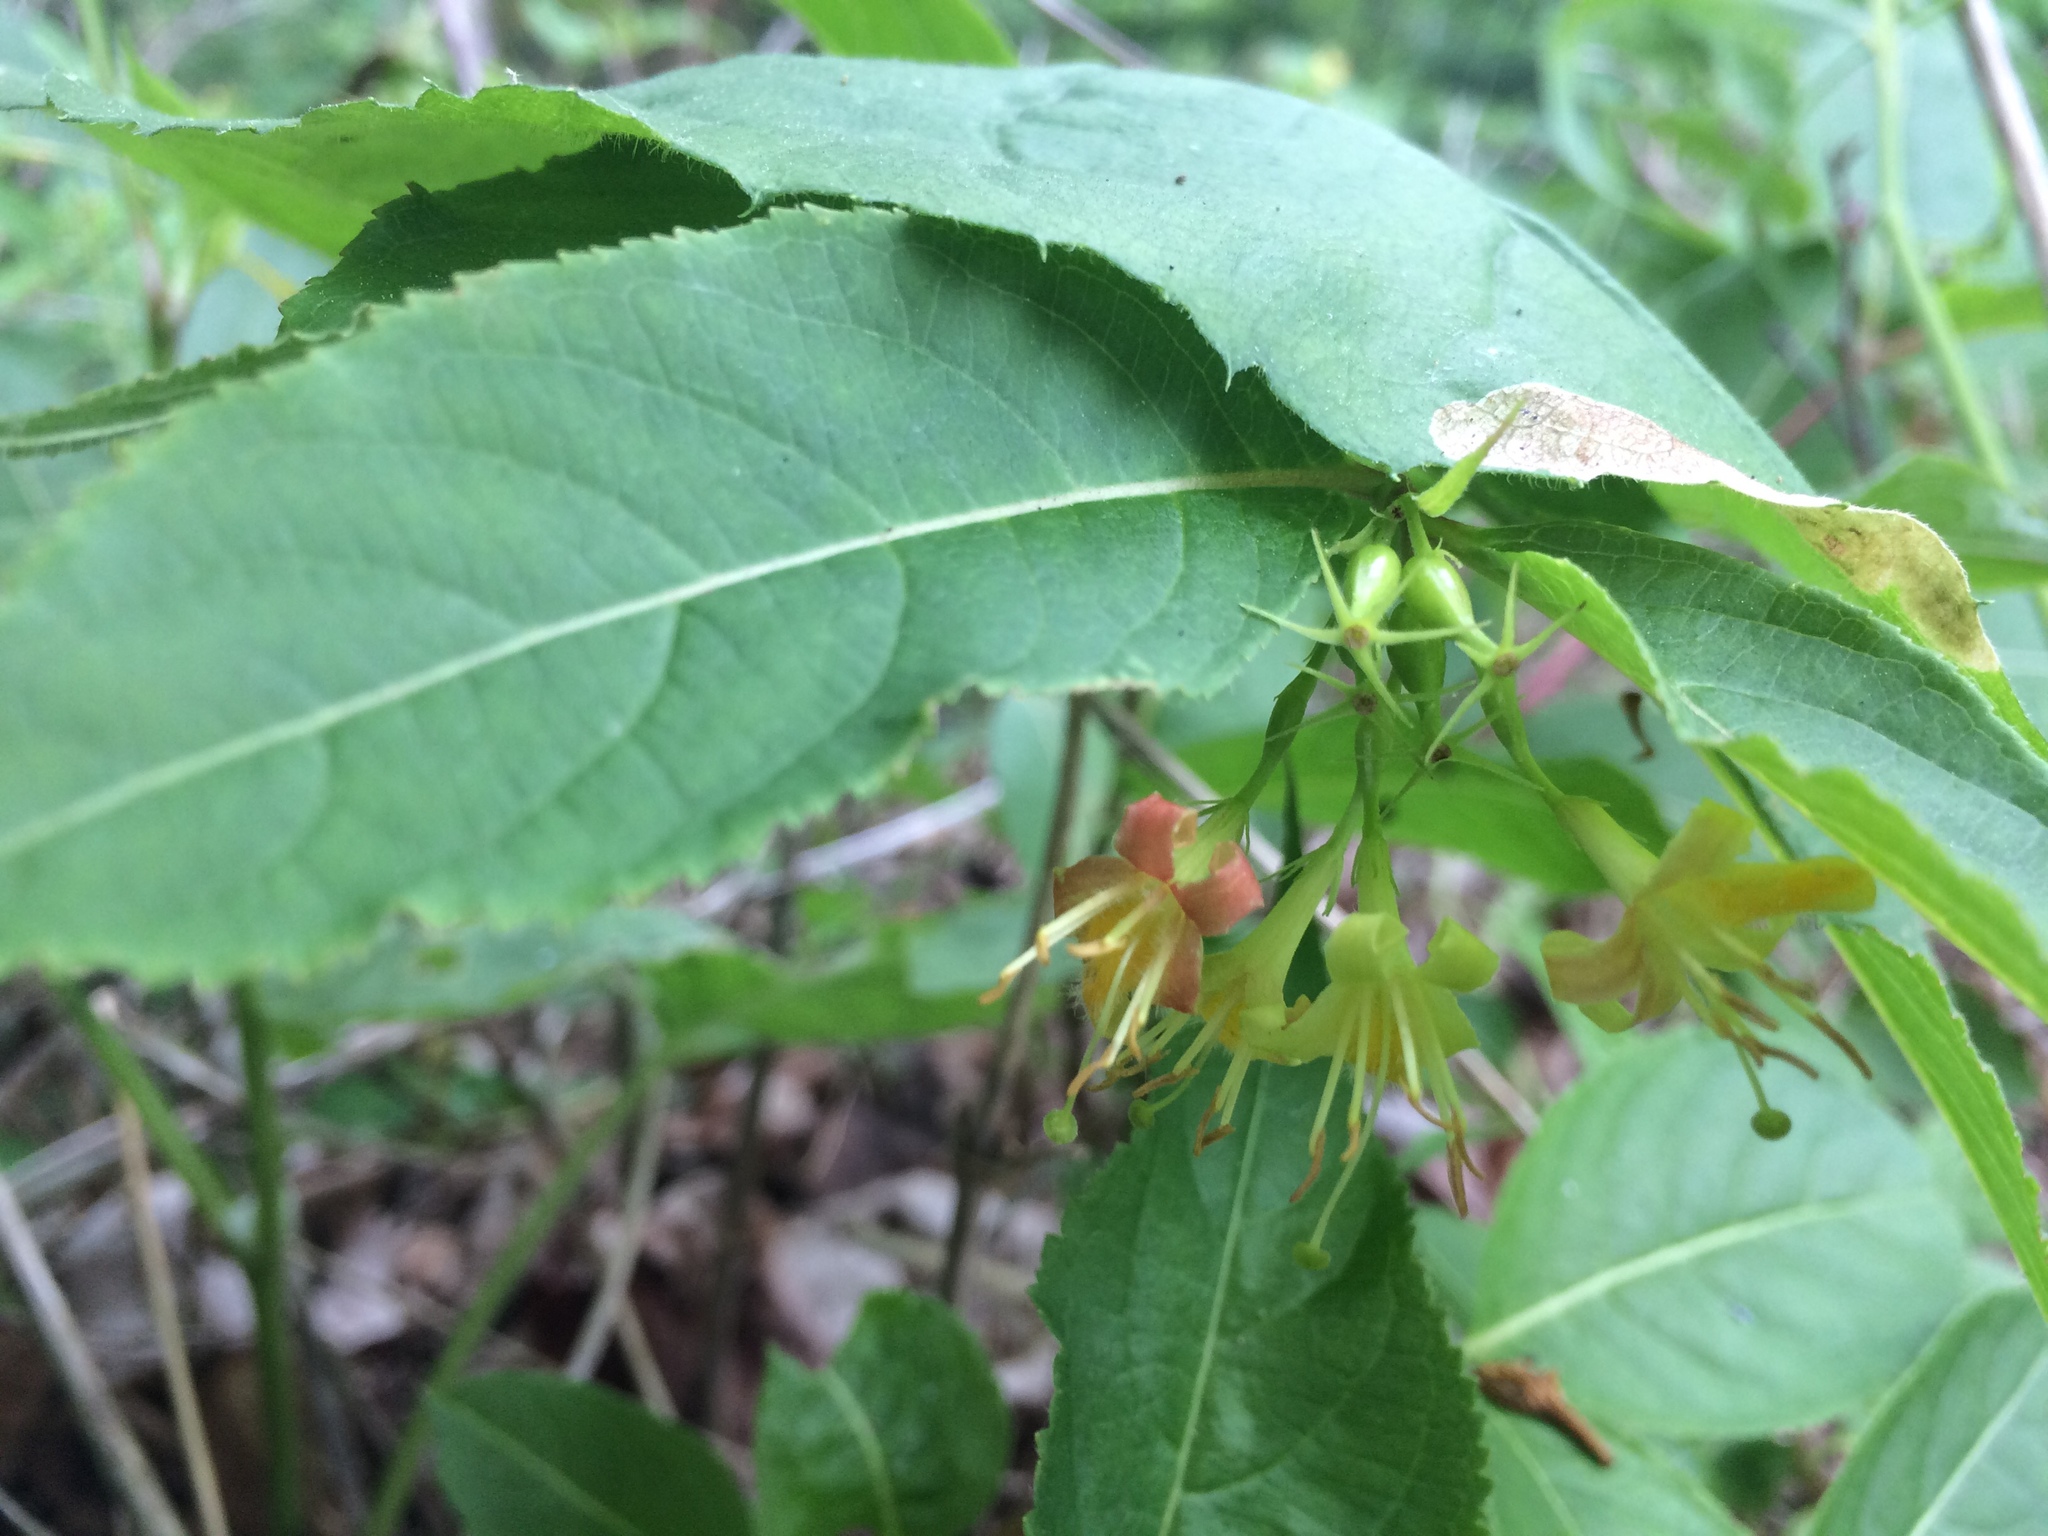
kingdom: Plantae
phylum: Tracheophyta
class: Magnoliopsida
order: Dipsacales
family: Caprifoliaceae
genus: Diervilla
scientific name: Diervilla lonicera
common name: Bush-honeysuckle
